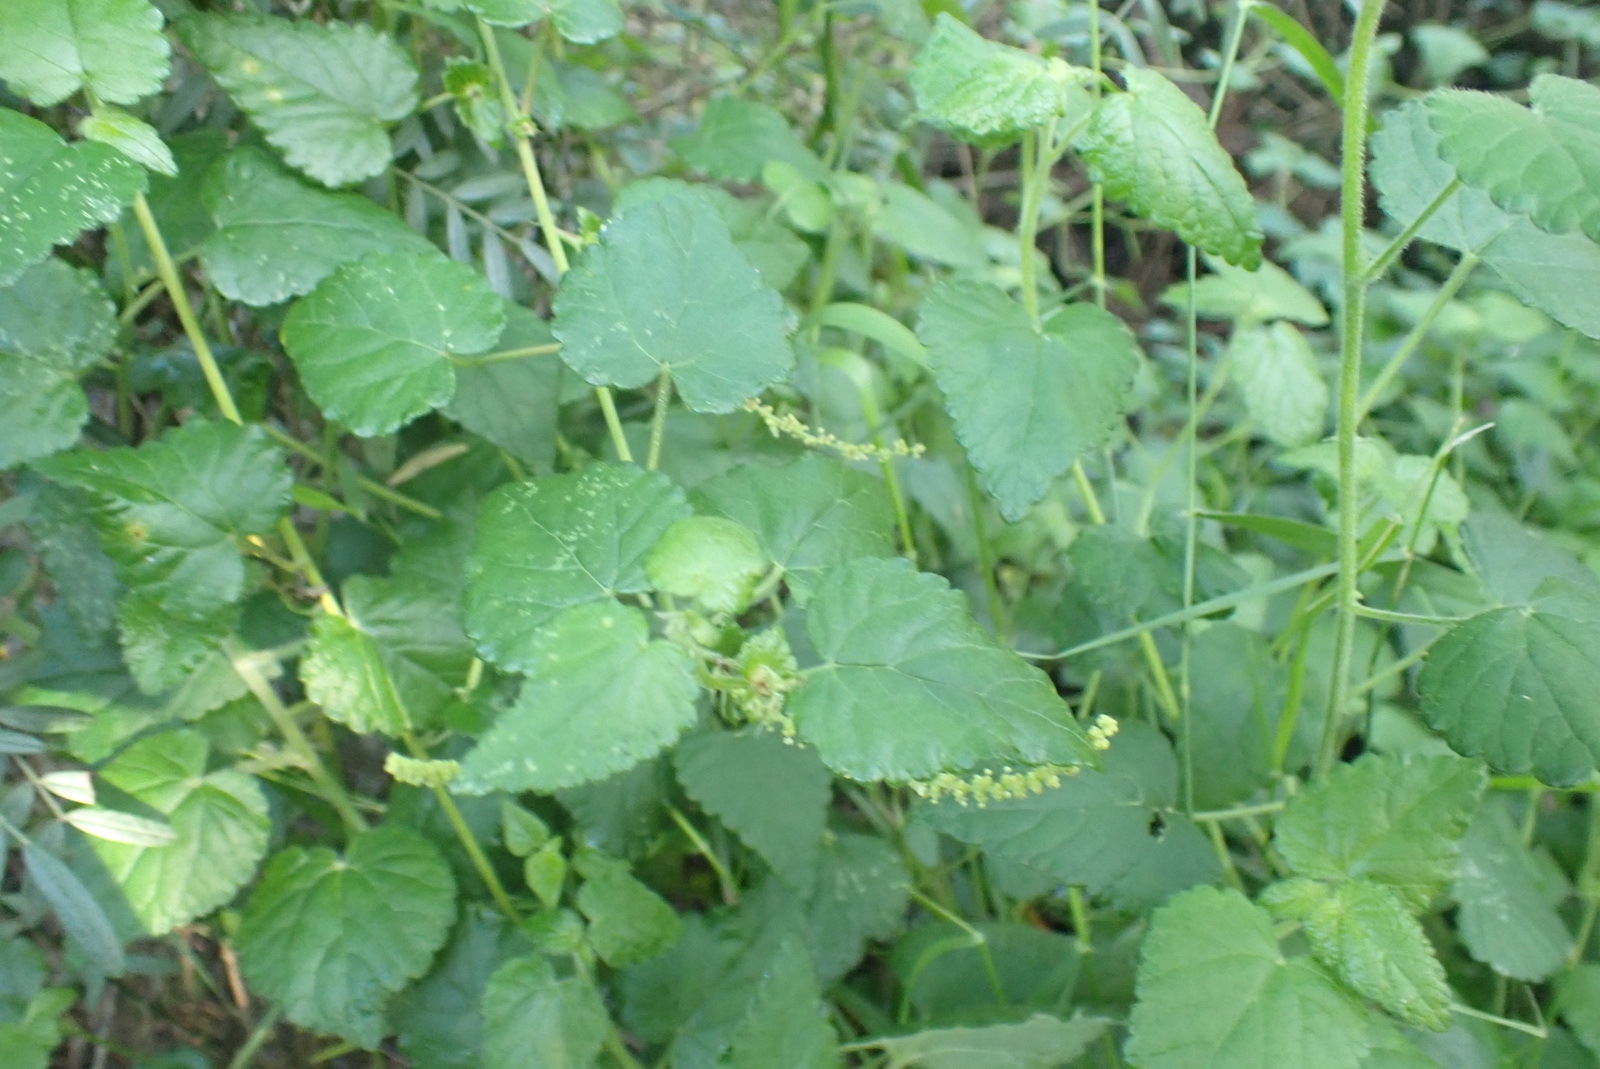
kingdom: Plantae
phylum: Tracheophyta
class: Magnoliopsida
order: Malpighiales
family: Euphorbiaceae
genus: Bernardia
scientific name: Bernardia corensis
